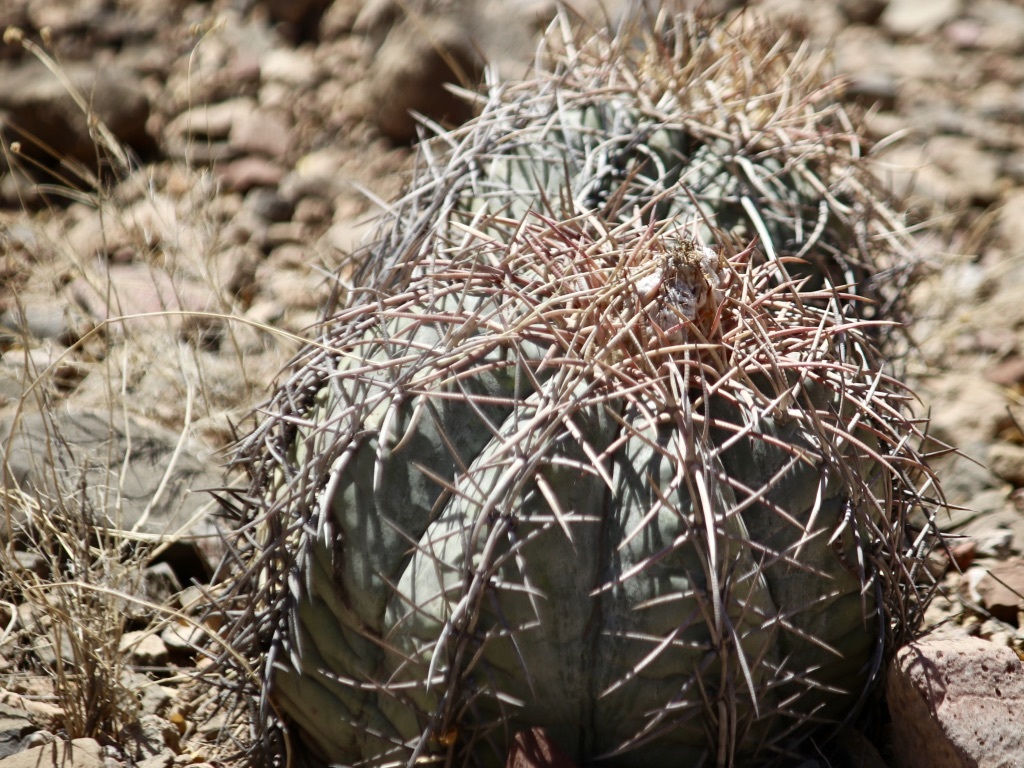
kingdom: Plantae
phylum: Tracheophyta
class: Magnoliopsida
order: Caryophyllales
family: Cactaceae
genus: Echinocactus
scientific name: Echinocactus horizonthalonius
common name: Devilshead
